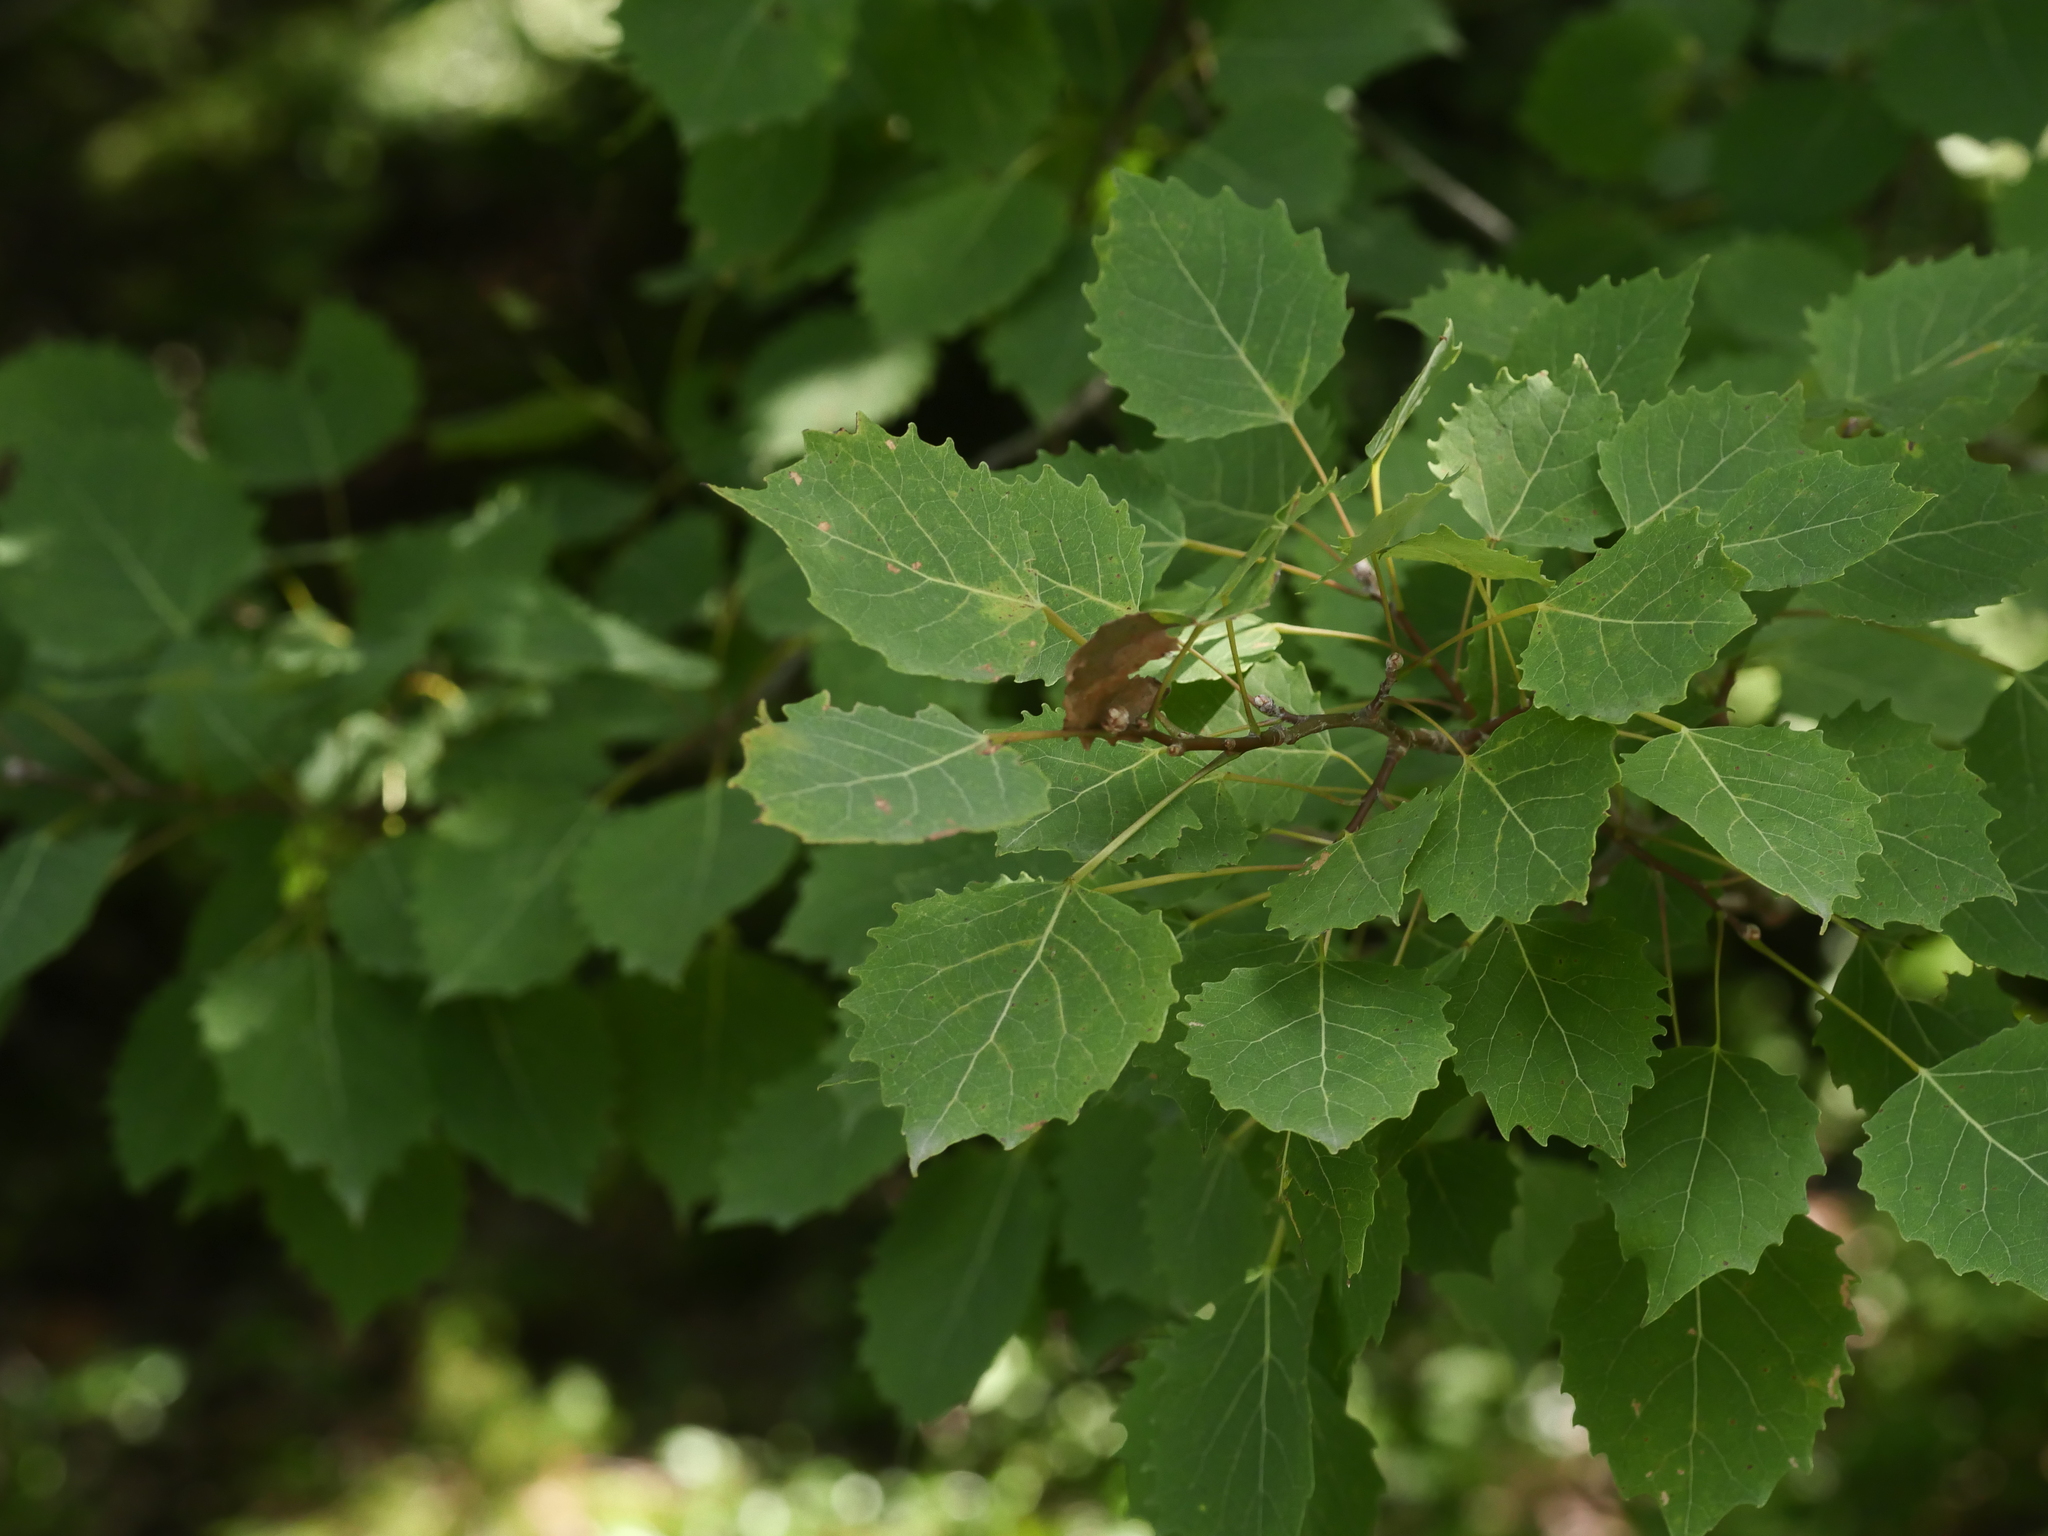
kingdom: Plantae
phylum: Tracheophyta
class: Magnoliopsida
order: Malpighiales
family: Salicaceae
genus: Populus
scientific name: Populus grandidentata
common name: Bigtooth aspen
